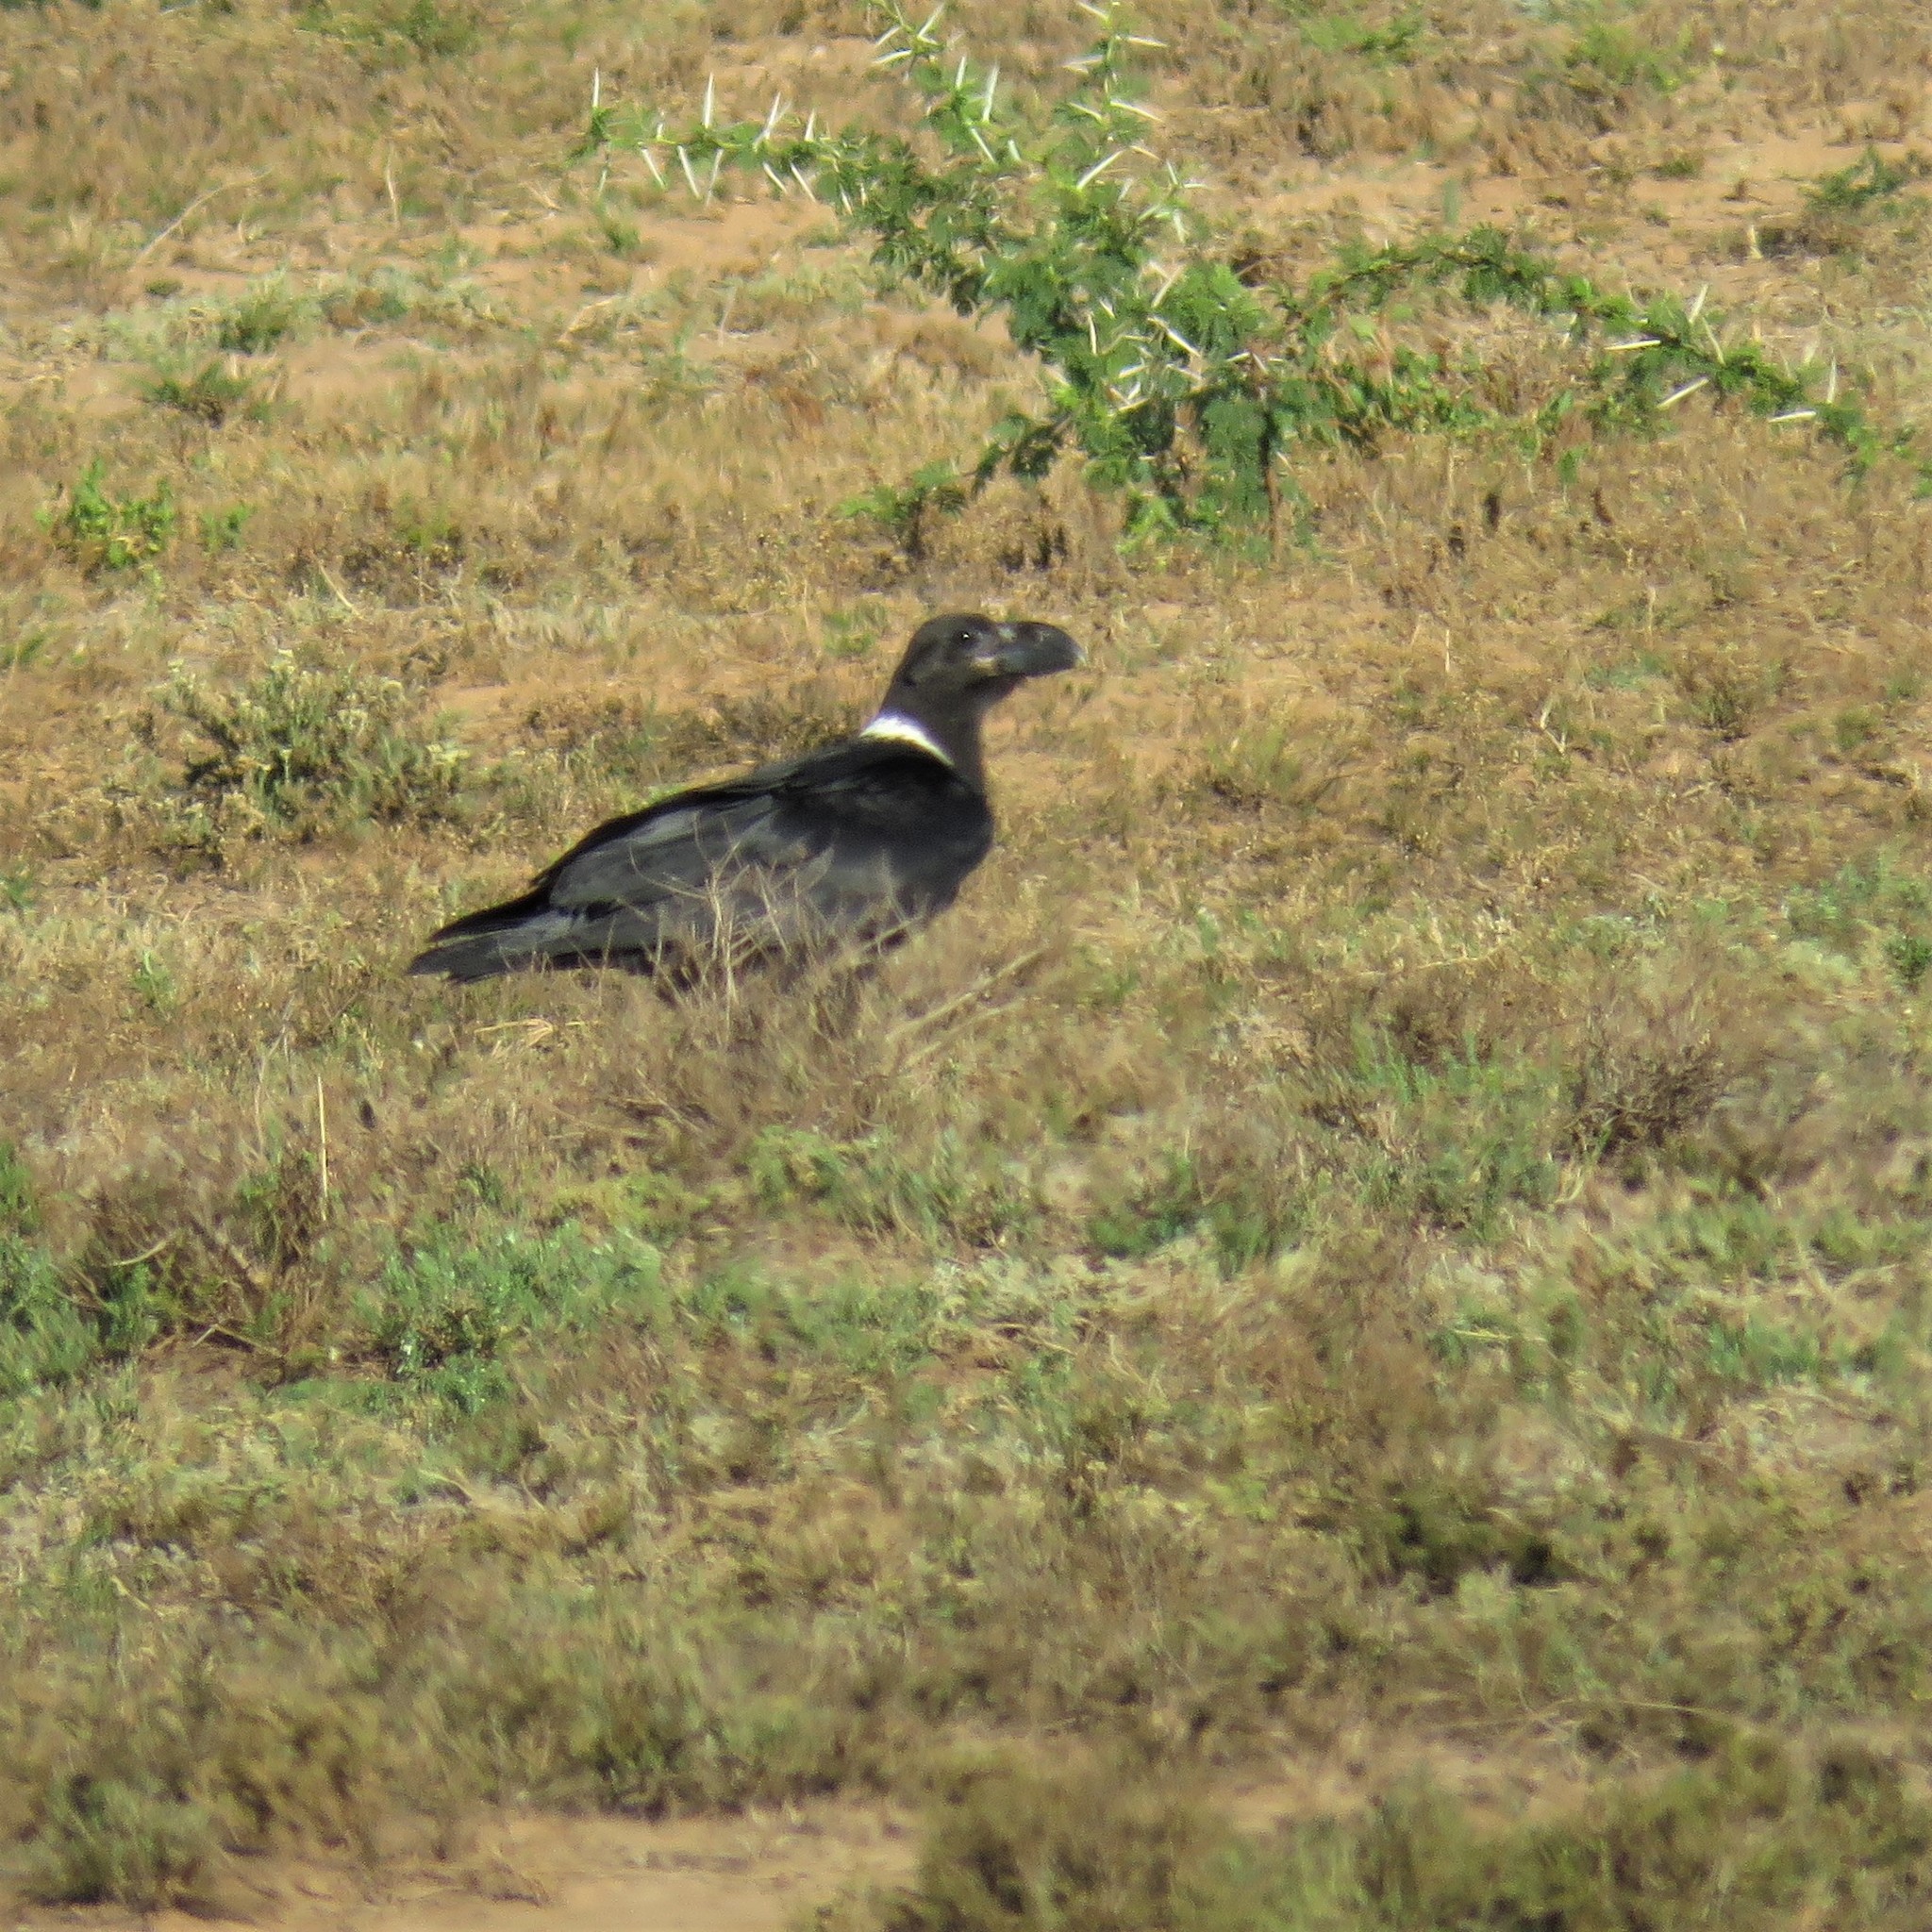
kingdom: Animalia
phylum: Chordata
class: Aves
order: Passeriformes
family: Corvidae
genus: Corvus
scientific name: Corvus albicollis
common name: White-necked raven
